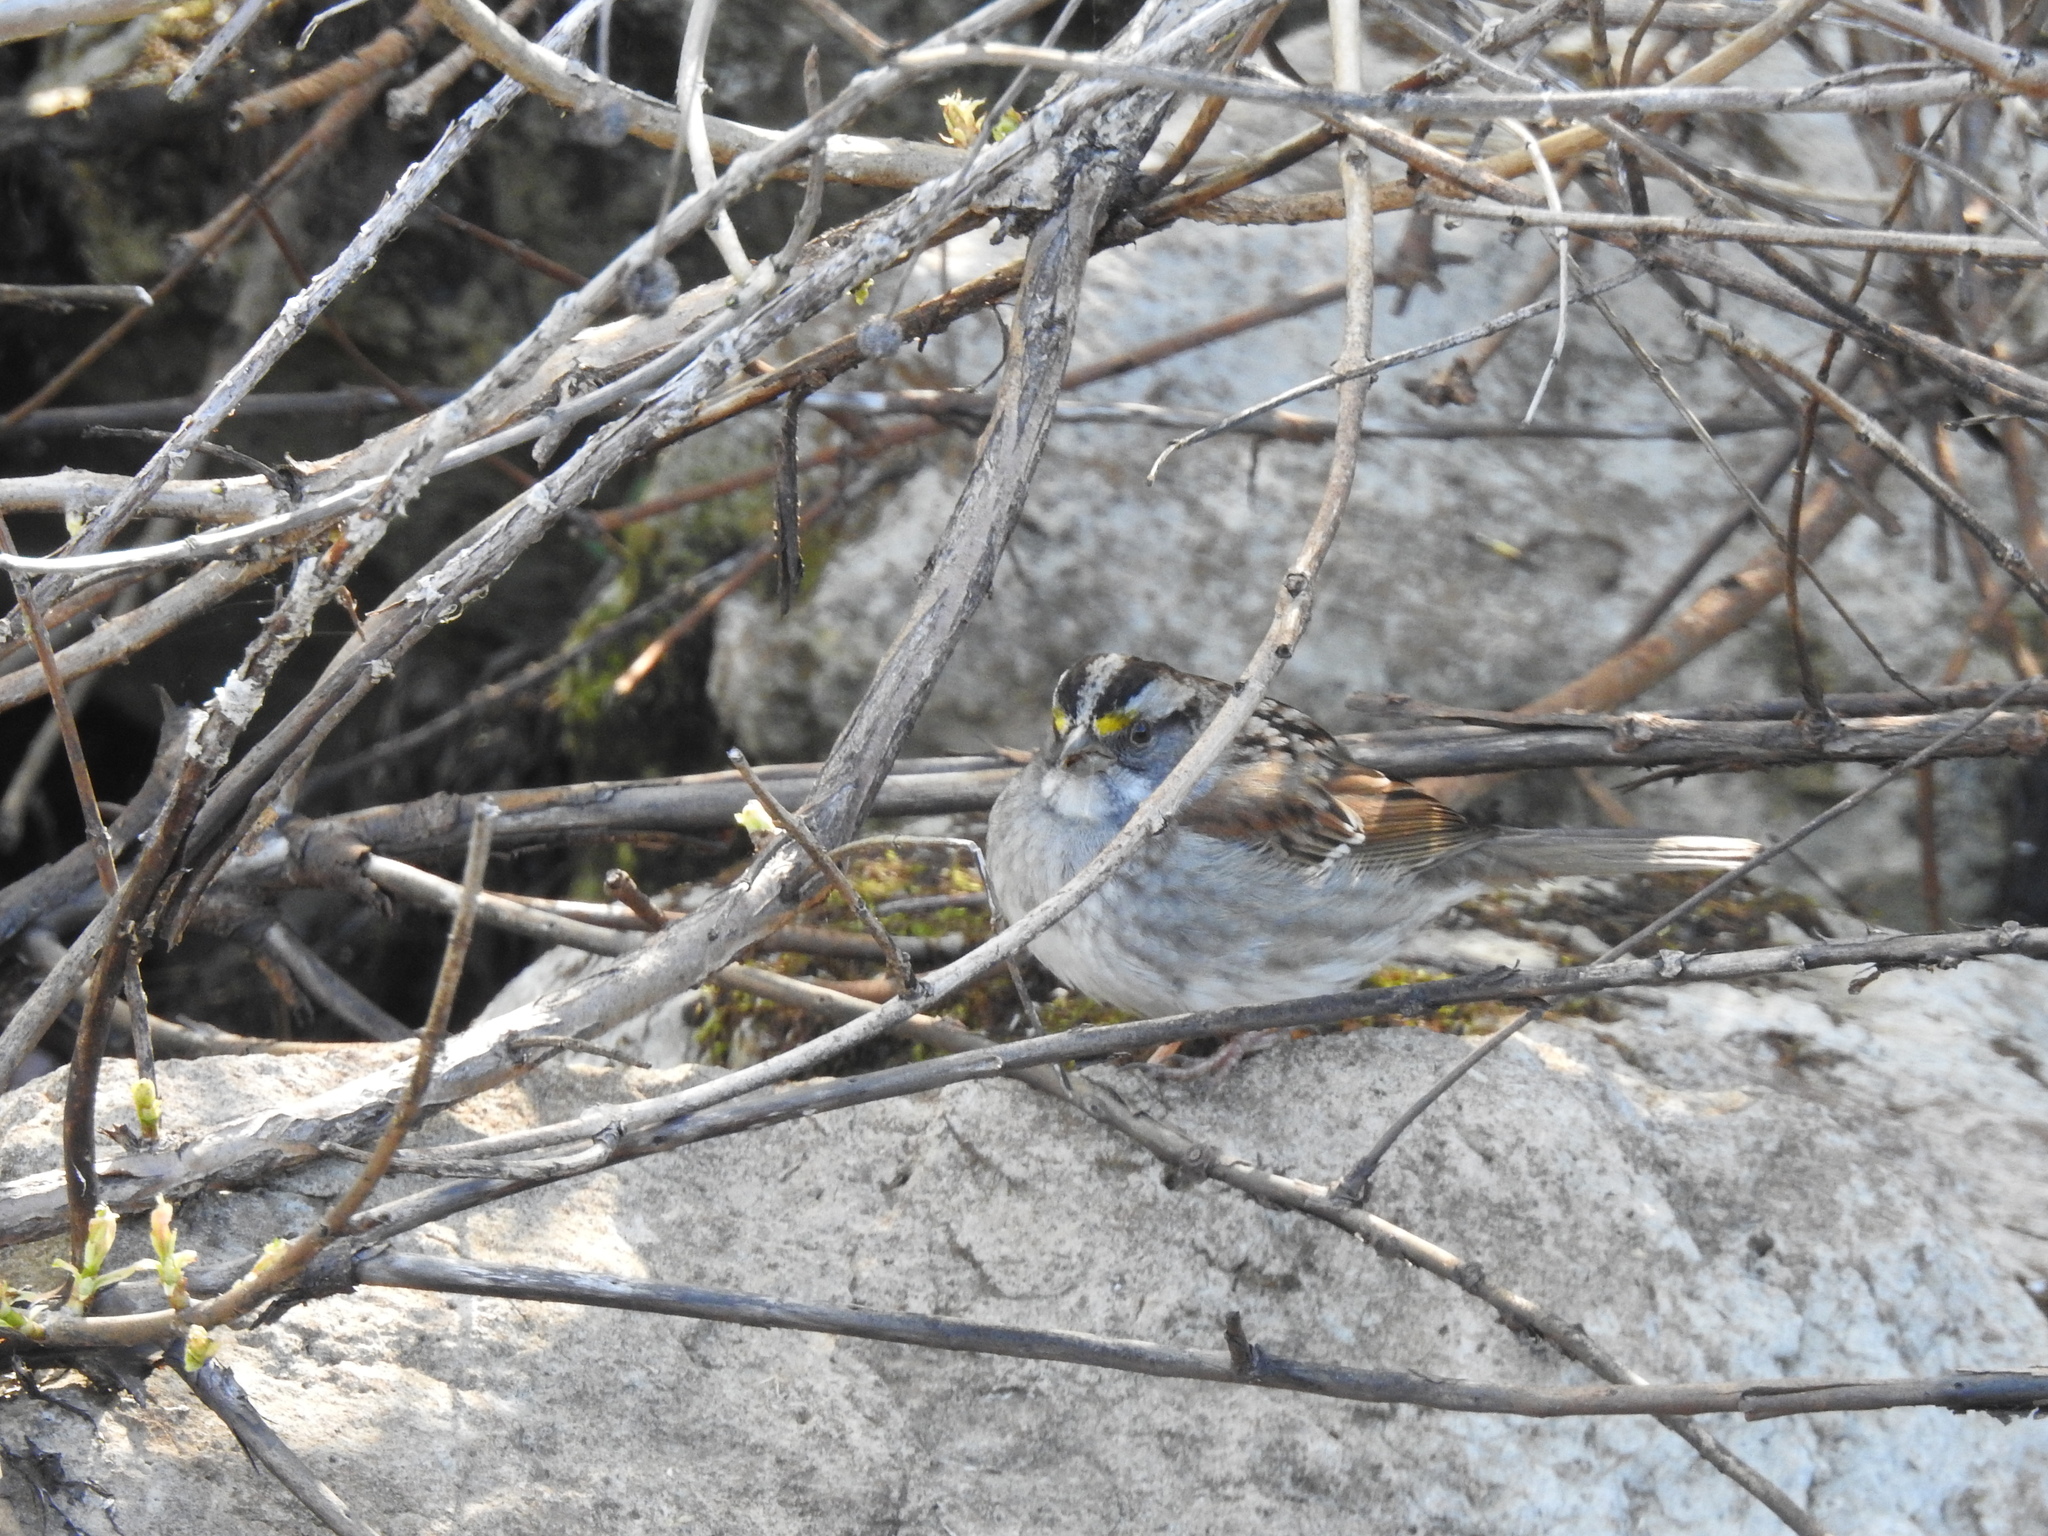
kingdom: Animalia
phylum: Chordata
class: Aves
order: Passeriformes
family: Passerellidae
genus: Zonotrichia
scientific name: Zonotrichia albicollis
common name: White-throated sparrow
